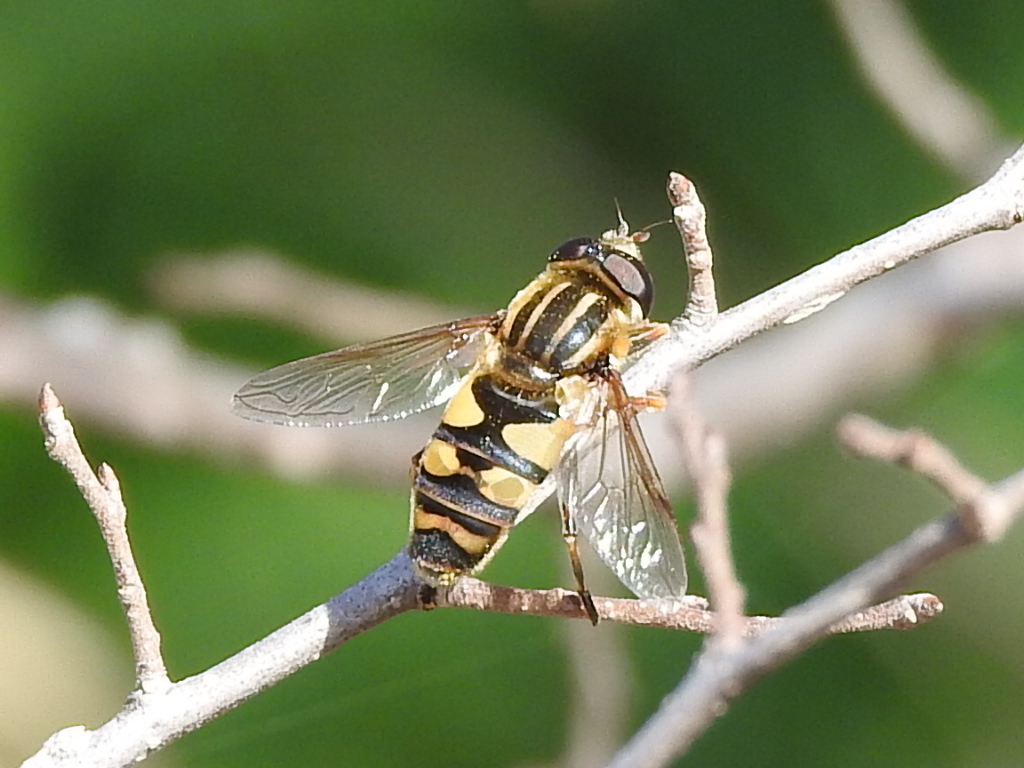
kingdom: Animalia
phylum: Arthropoda
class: Insecta
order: Diptera
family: Syrphidae
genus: Helophilus
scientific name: Helophilus fasciatus
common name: Narrow-headed marsh fly
